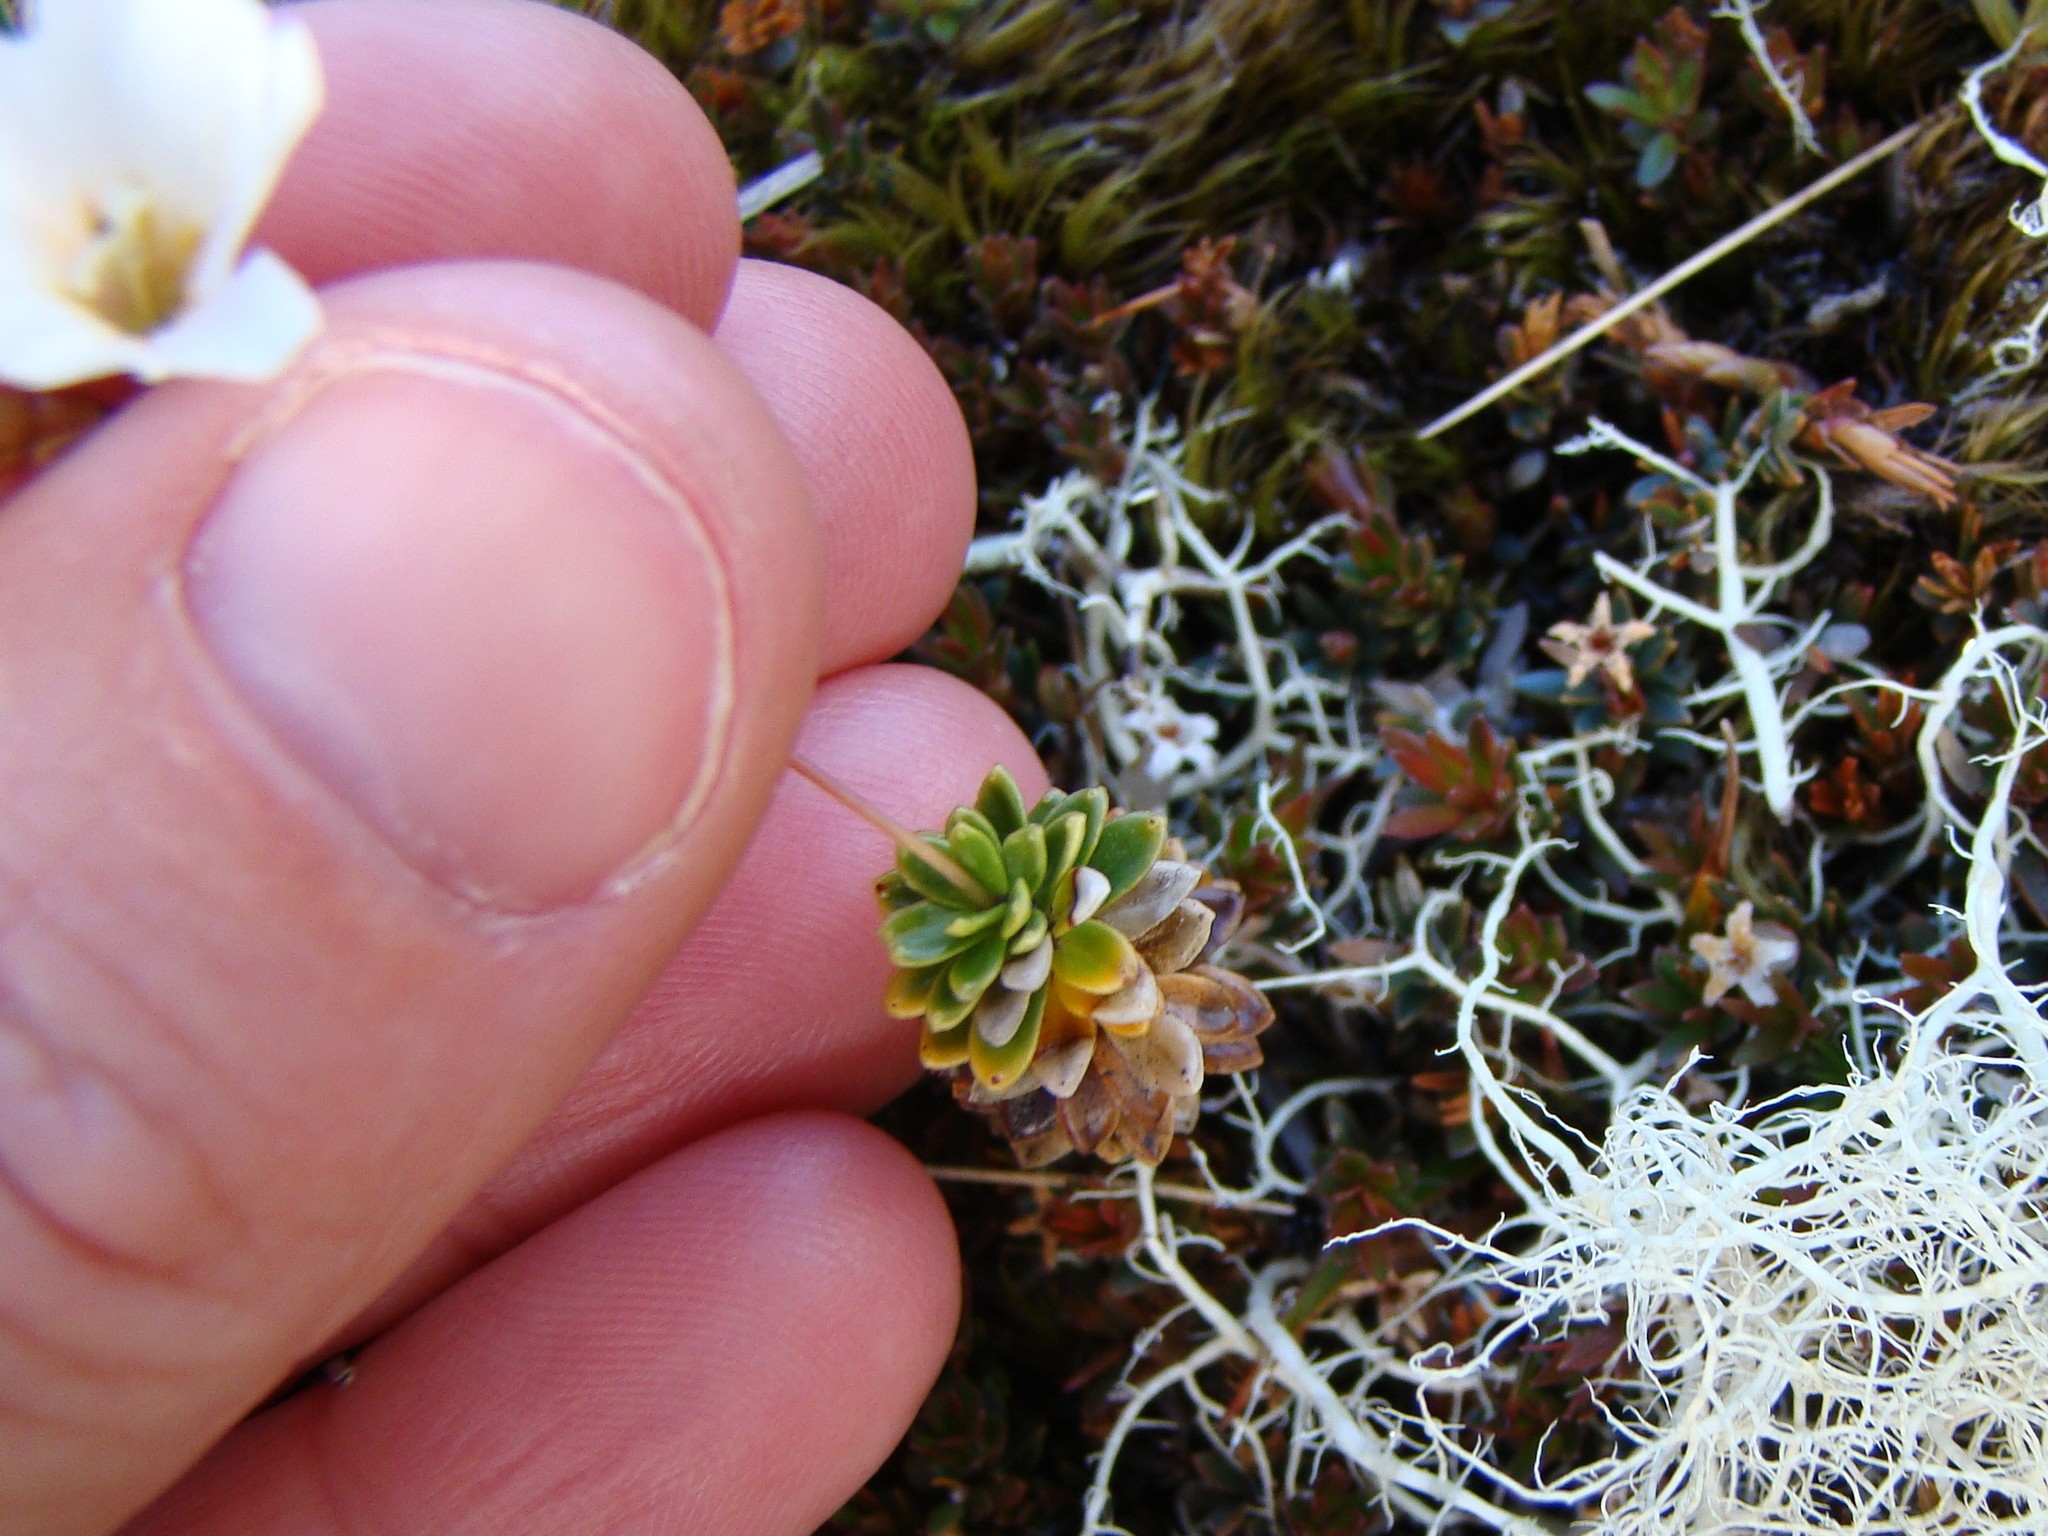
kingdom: Plantae
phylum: Tracheophyta
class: Magnoliopsida
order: Asterales
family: Stylidiaceae
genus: Forstera
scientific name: Forstera mackayi
